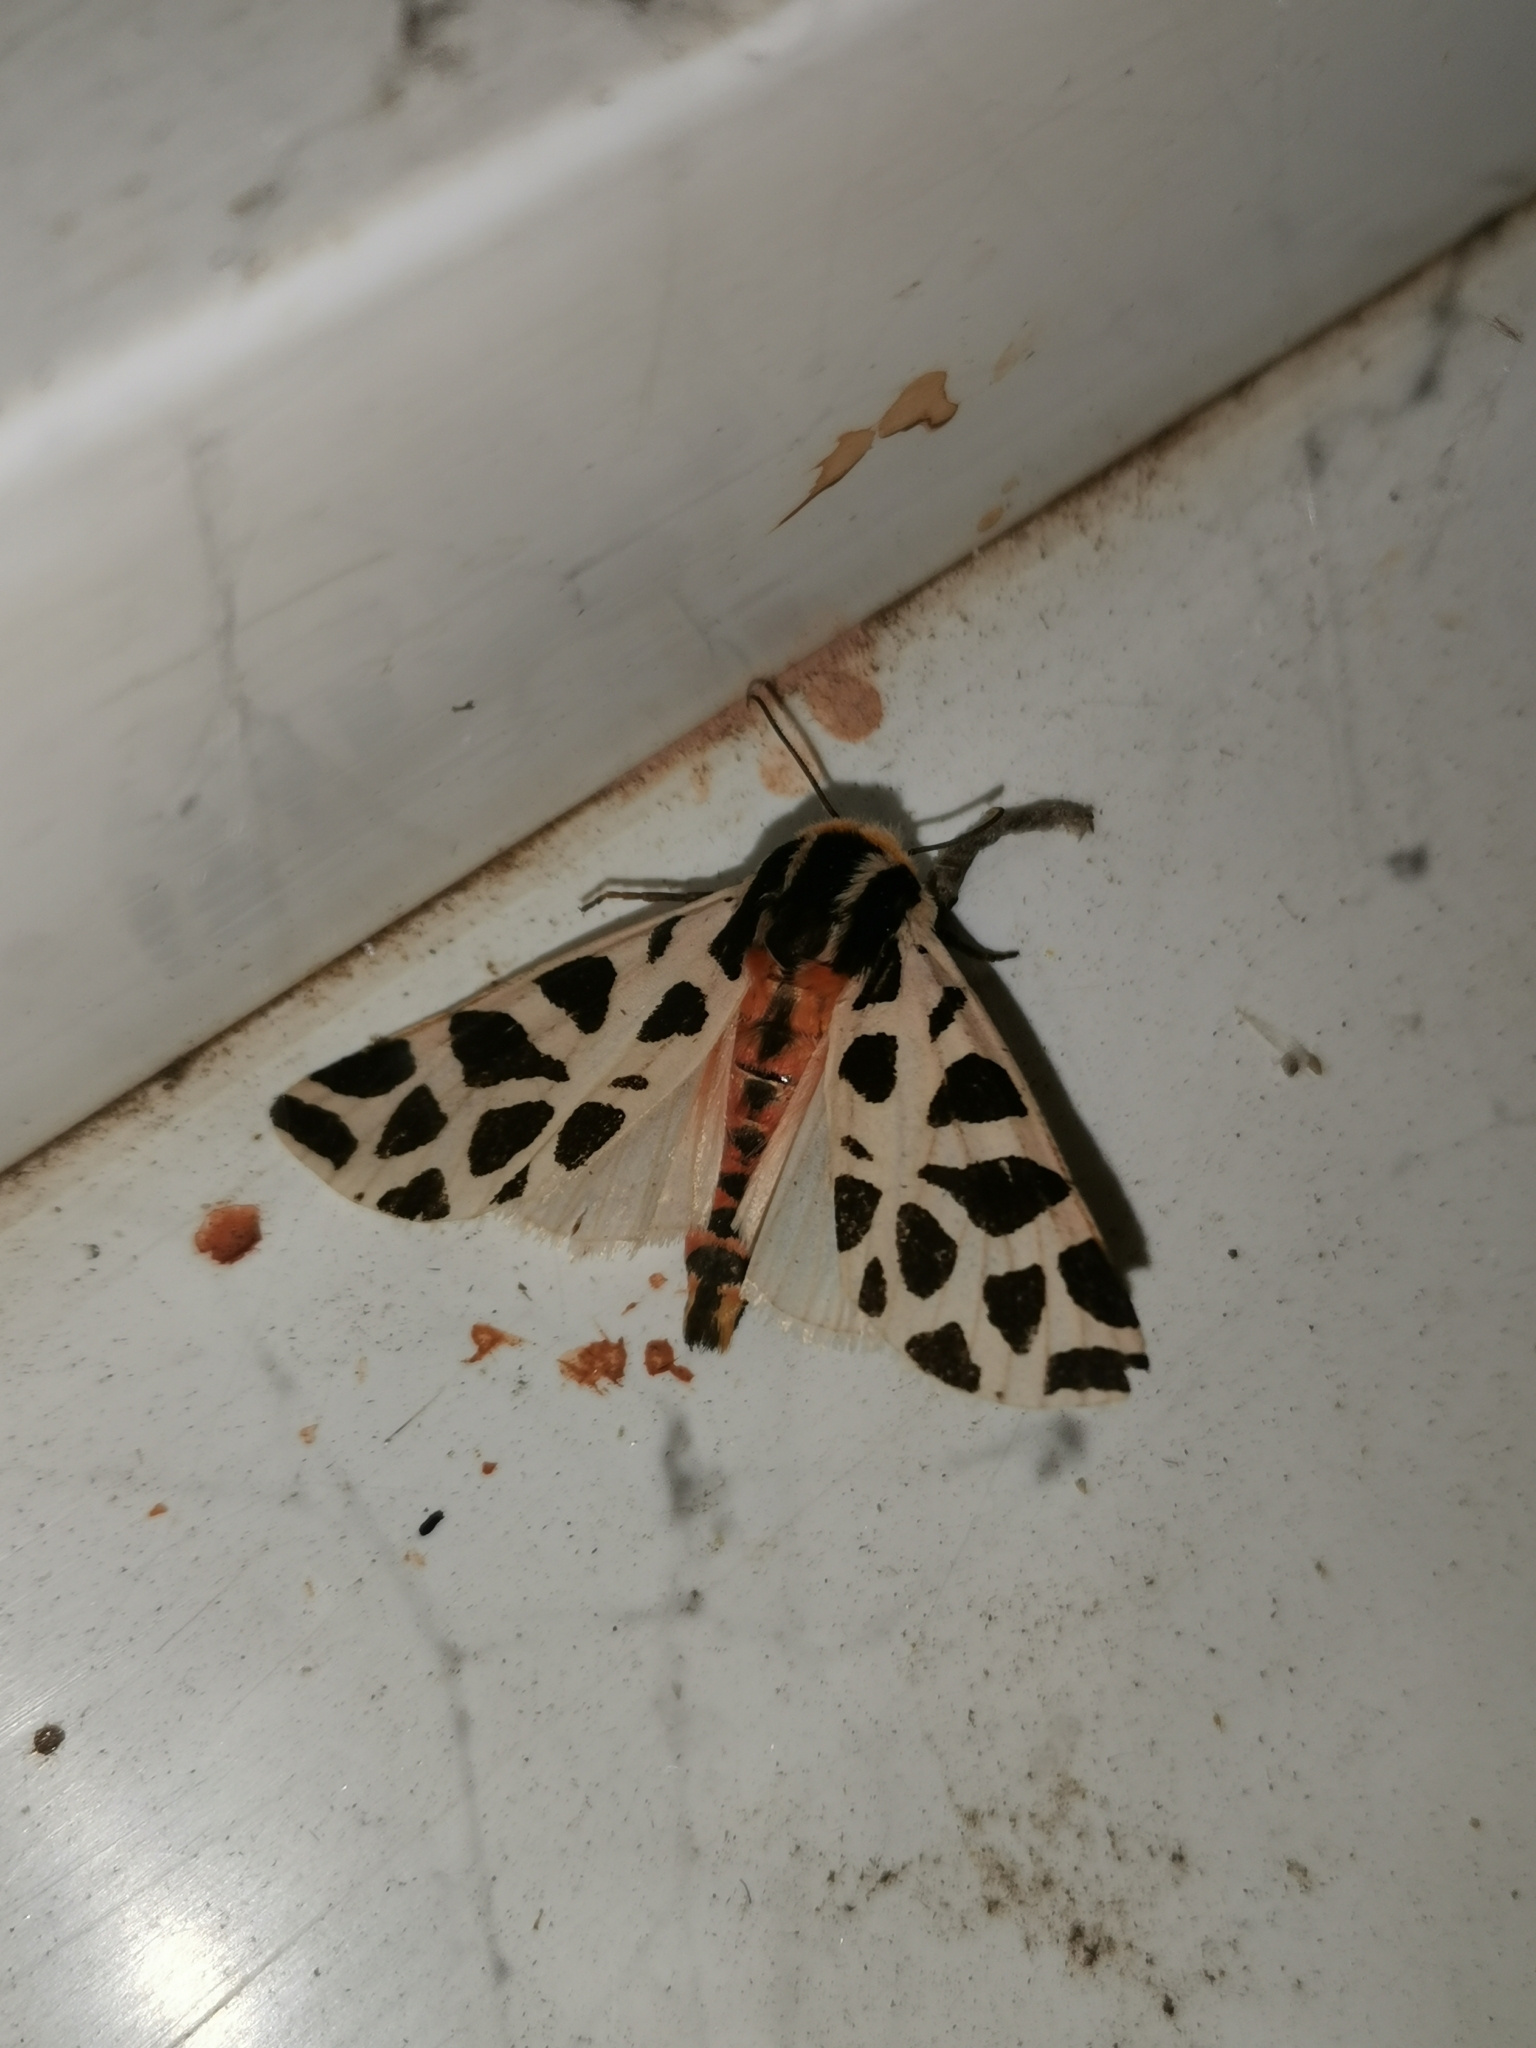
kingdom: Animalia
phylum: Arthropoda
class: Insecta
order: Lepidoptera
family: Erebidae
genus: Cymbalophora
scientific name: Cymbalophora pudica
